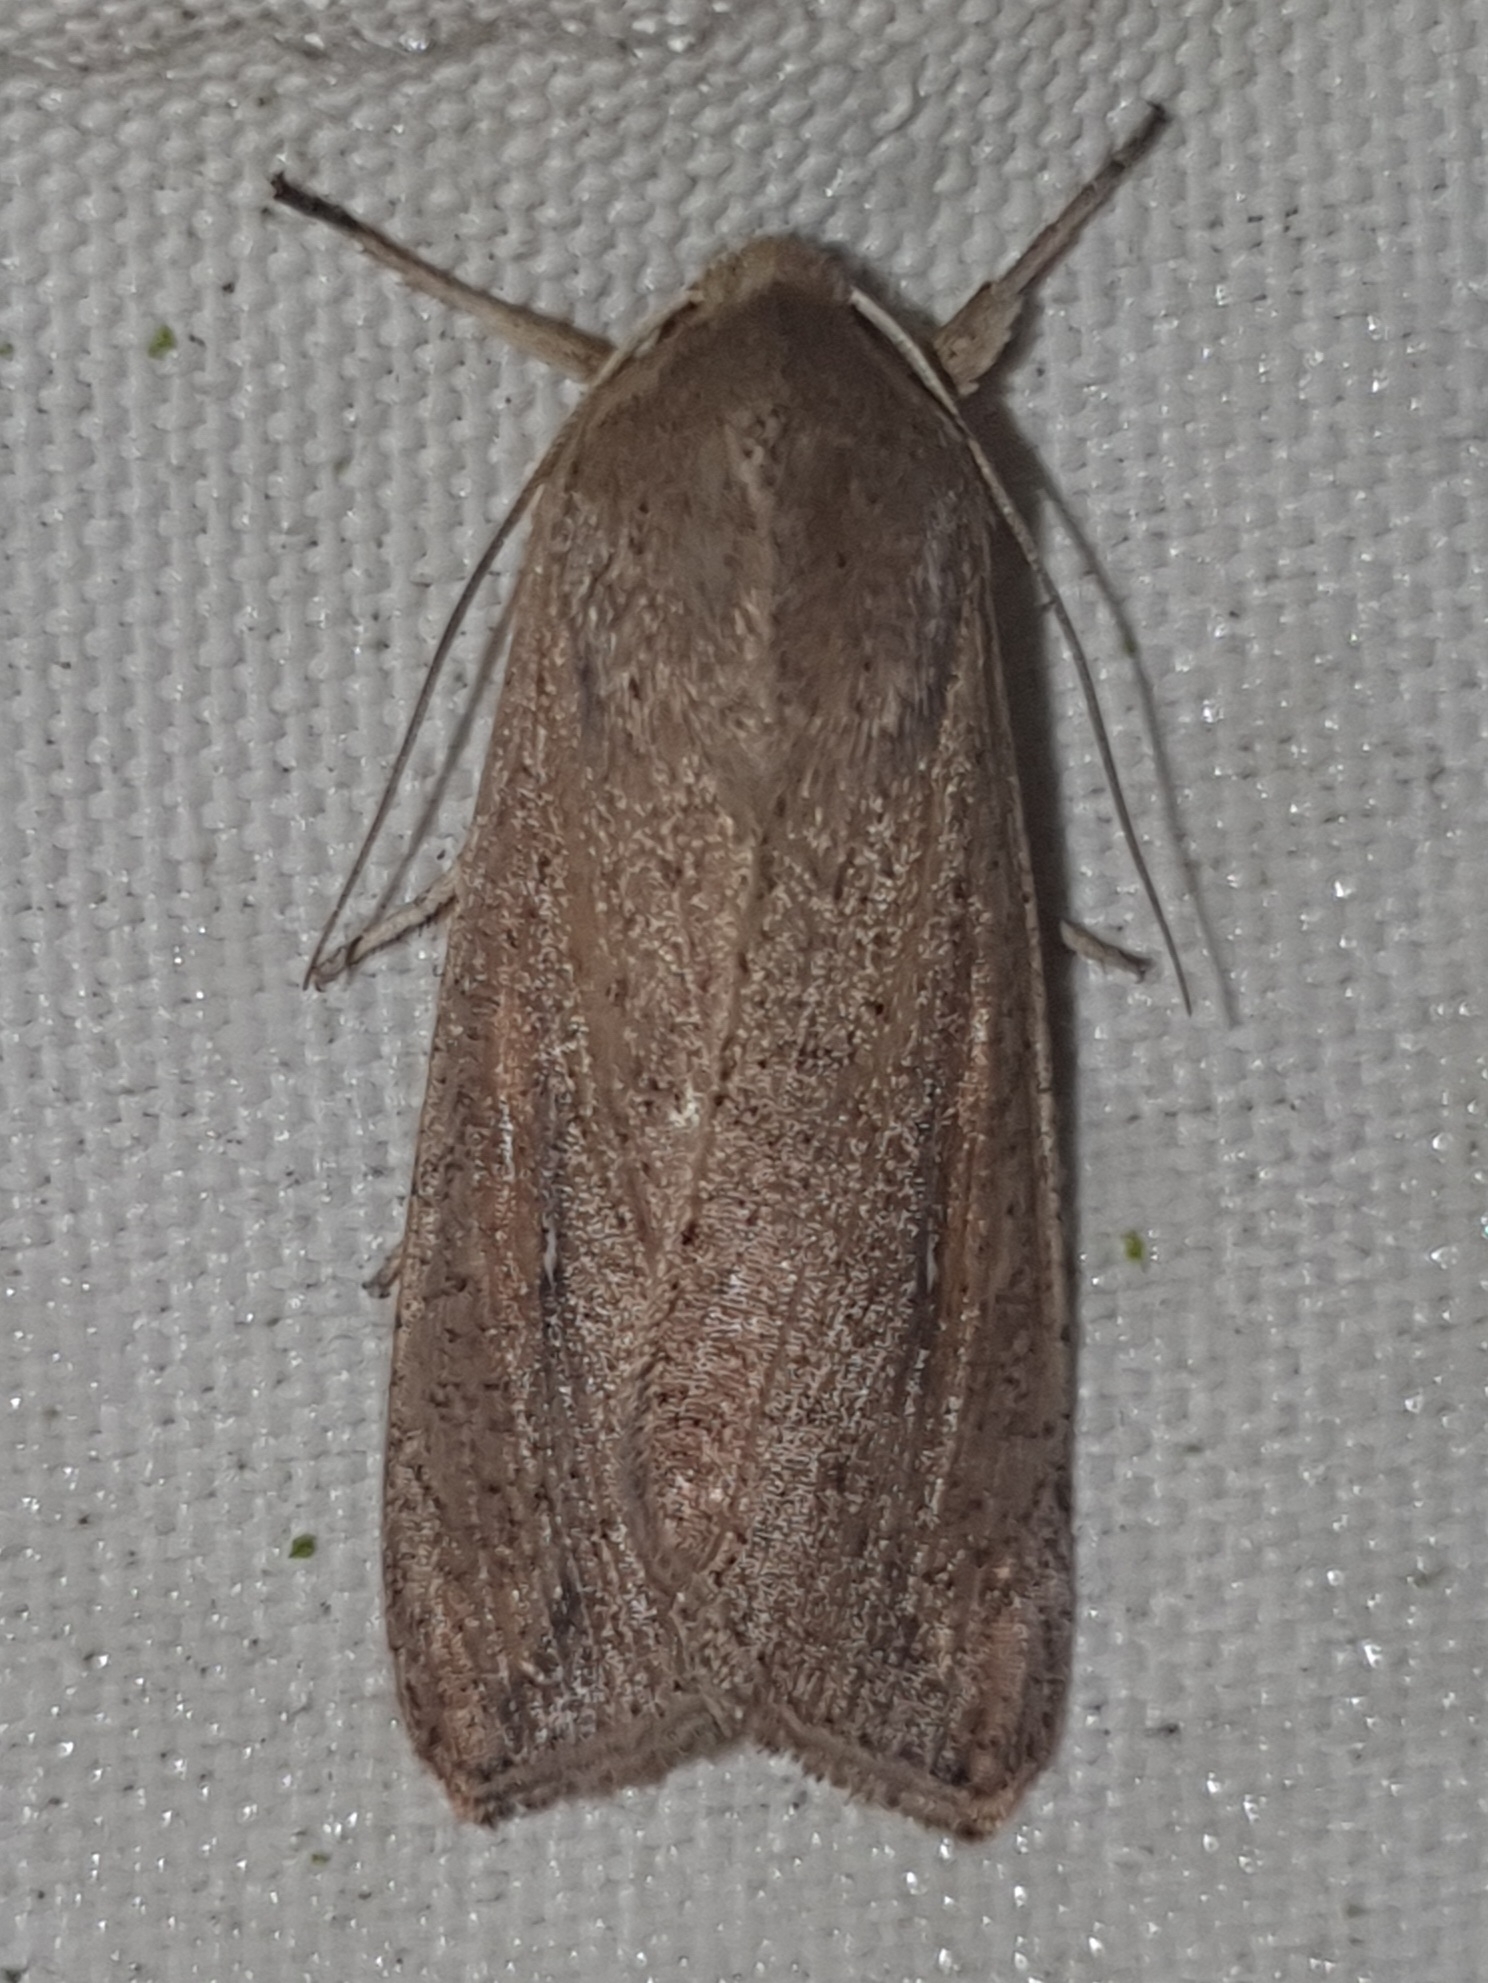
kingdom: Animalia
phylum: Arthropoda
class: Insecta
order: Lepidoptera
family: Noctuidae
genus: Mythimna
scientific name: Mythimna unipuncta
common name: White-speck
